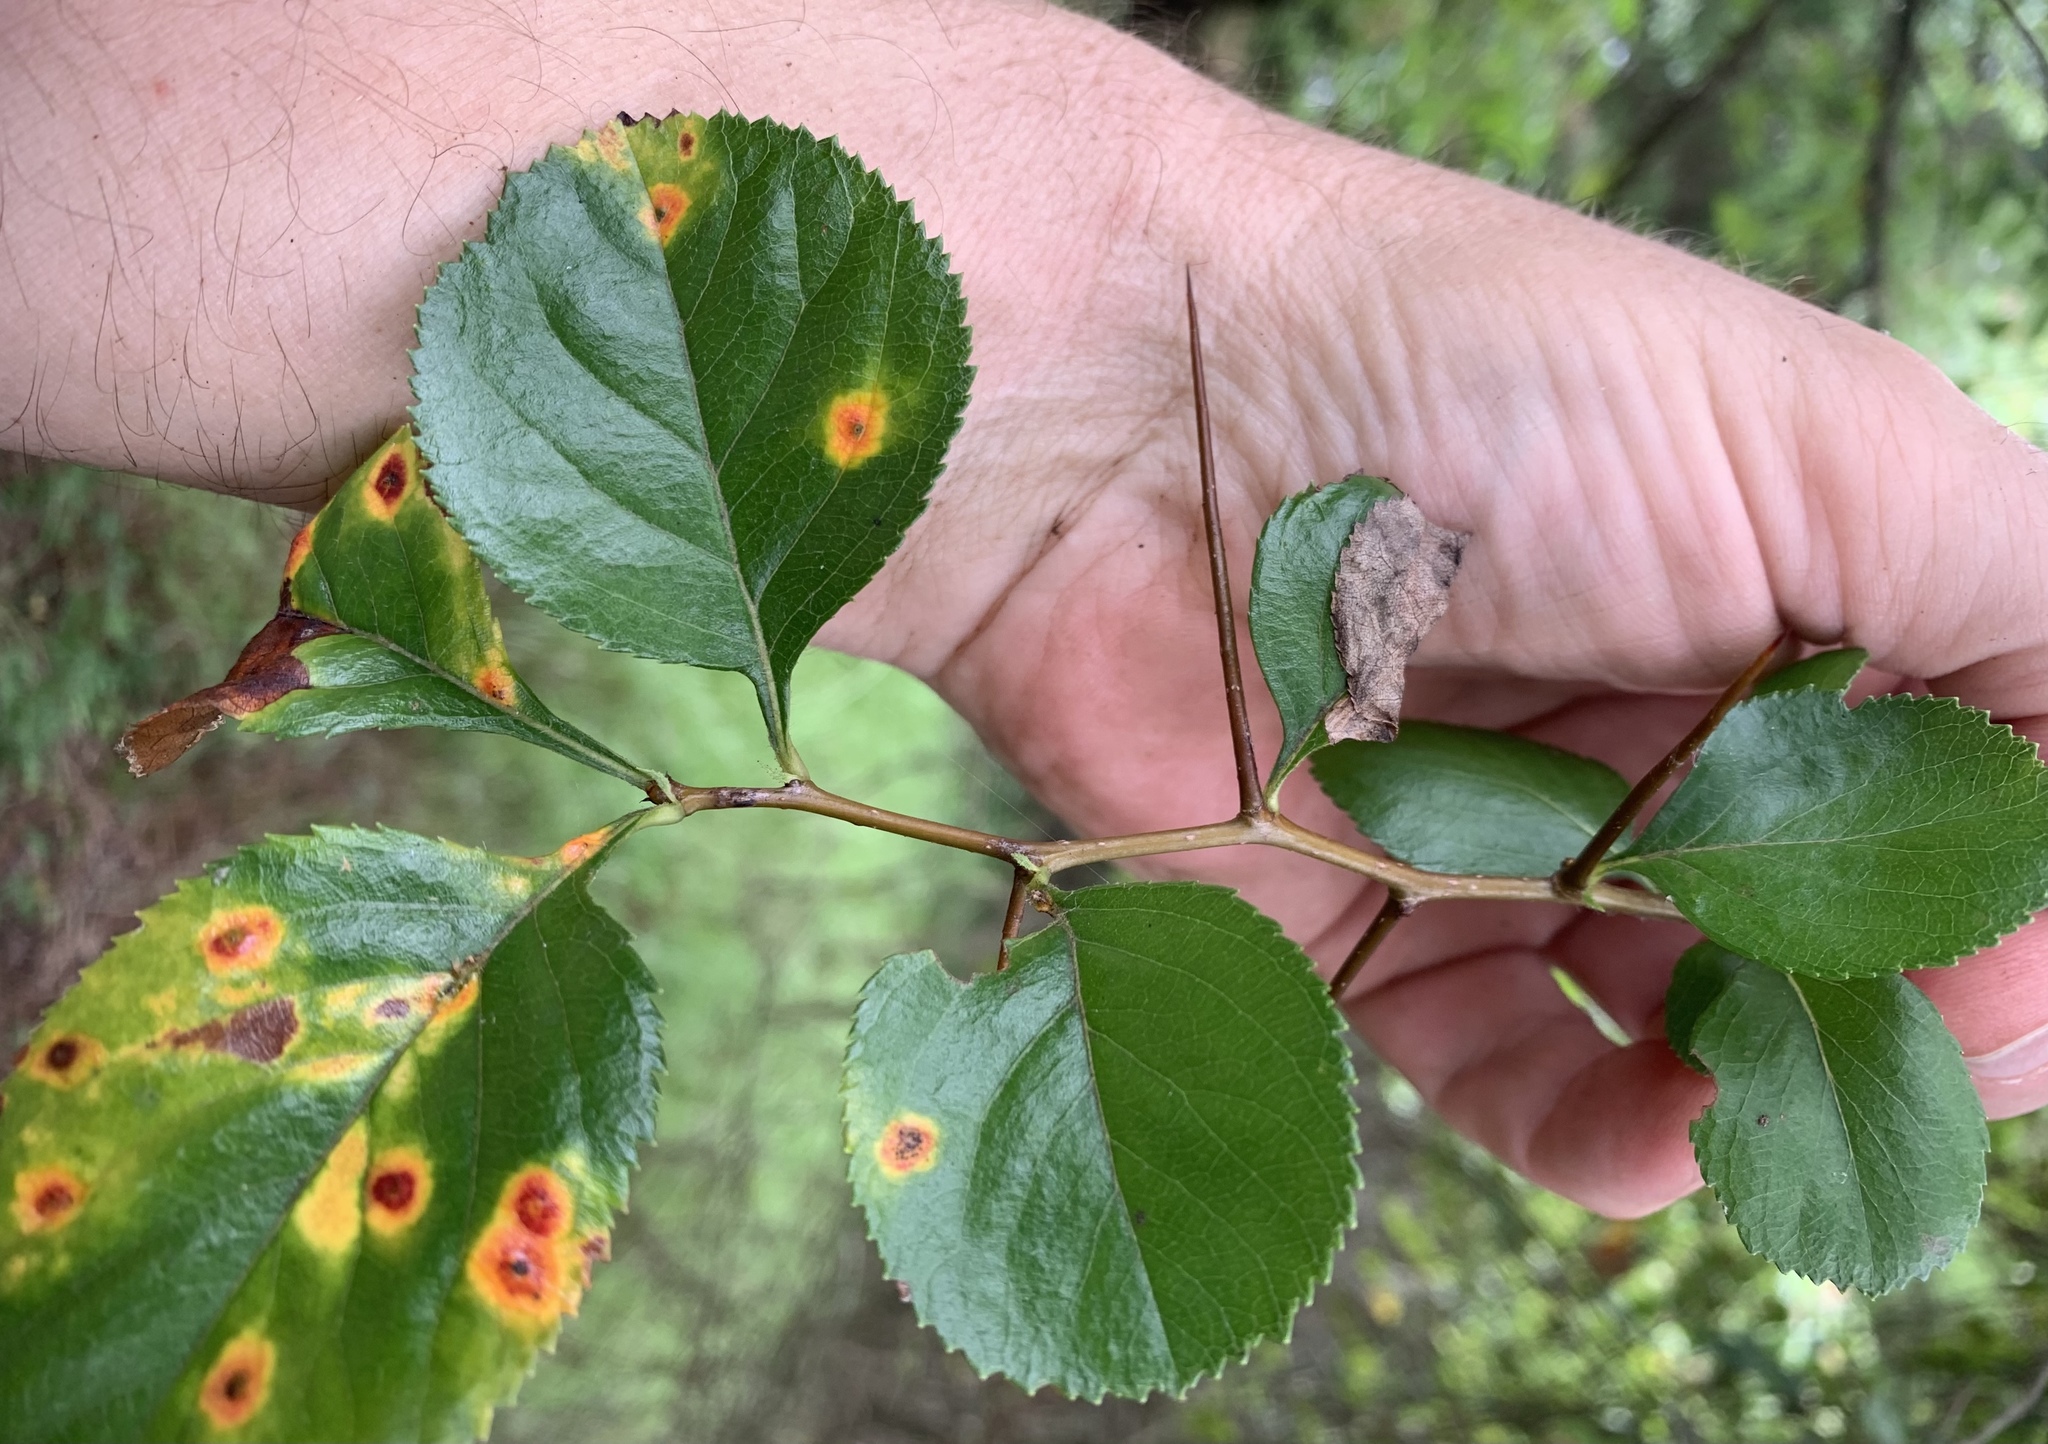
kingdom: Plantae
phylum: Tracheophyta
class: Magnoliopsida
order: Rosales
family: Rosaceae
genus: Crataegus
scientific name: Crataegus reverchonii
